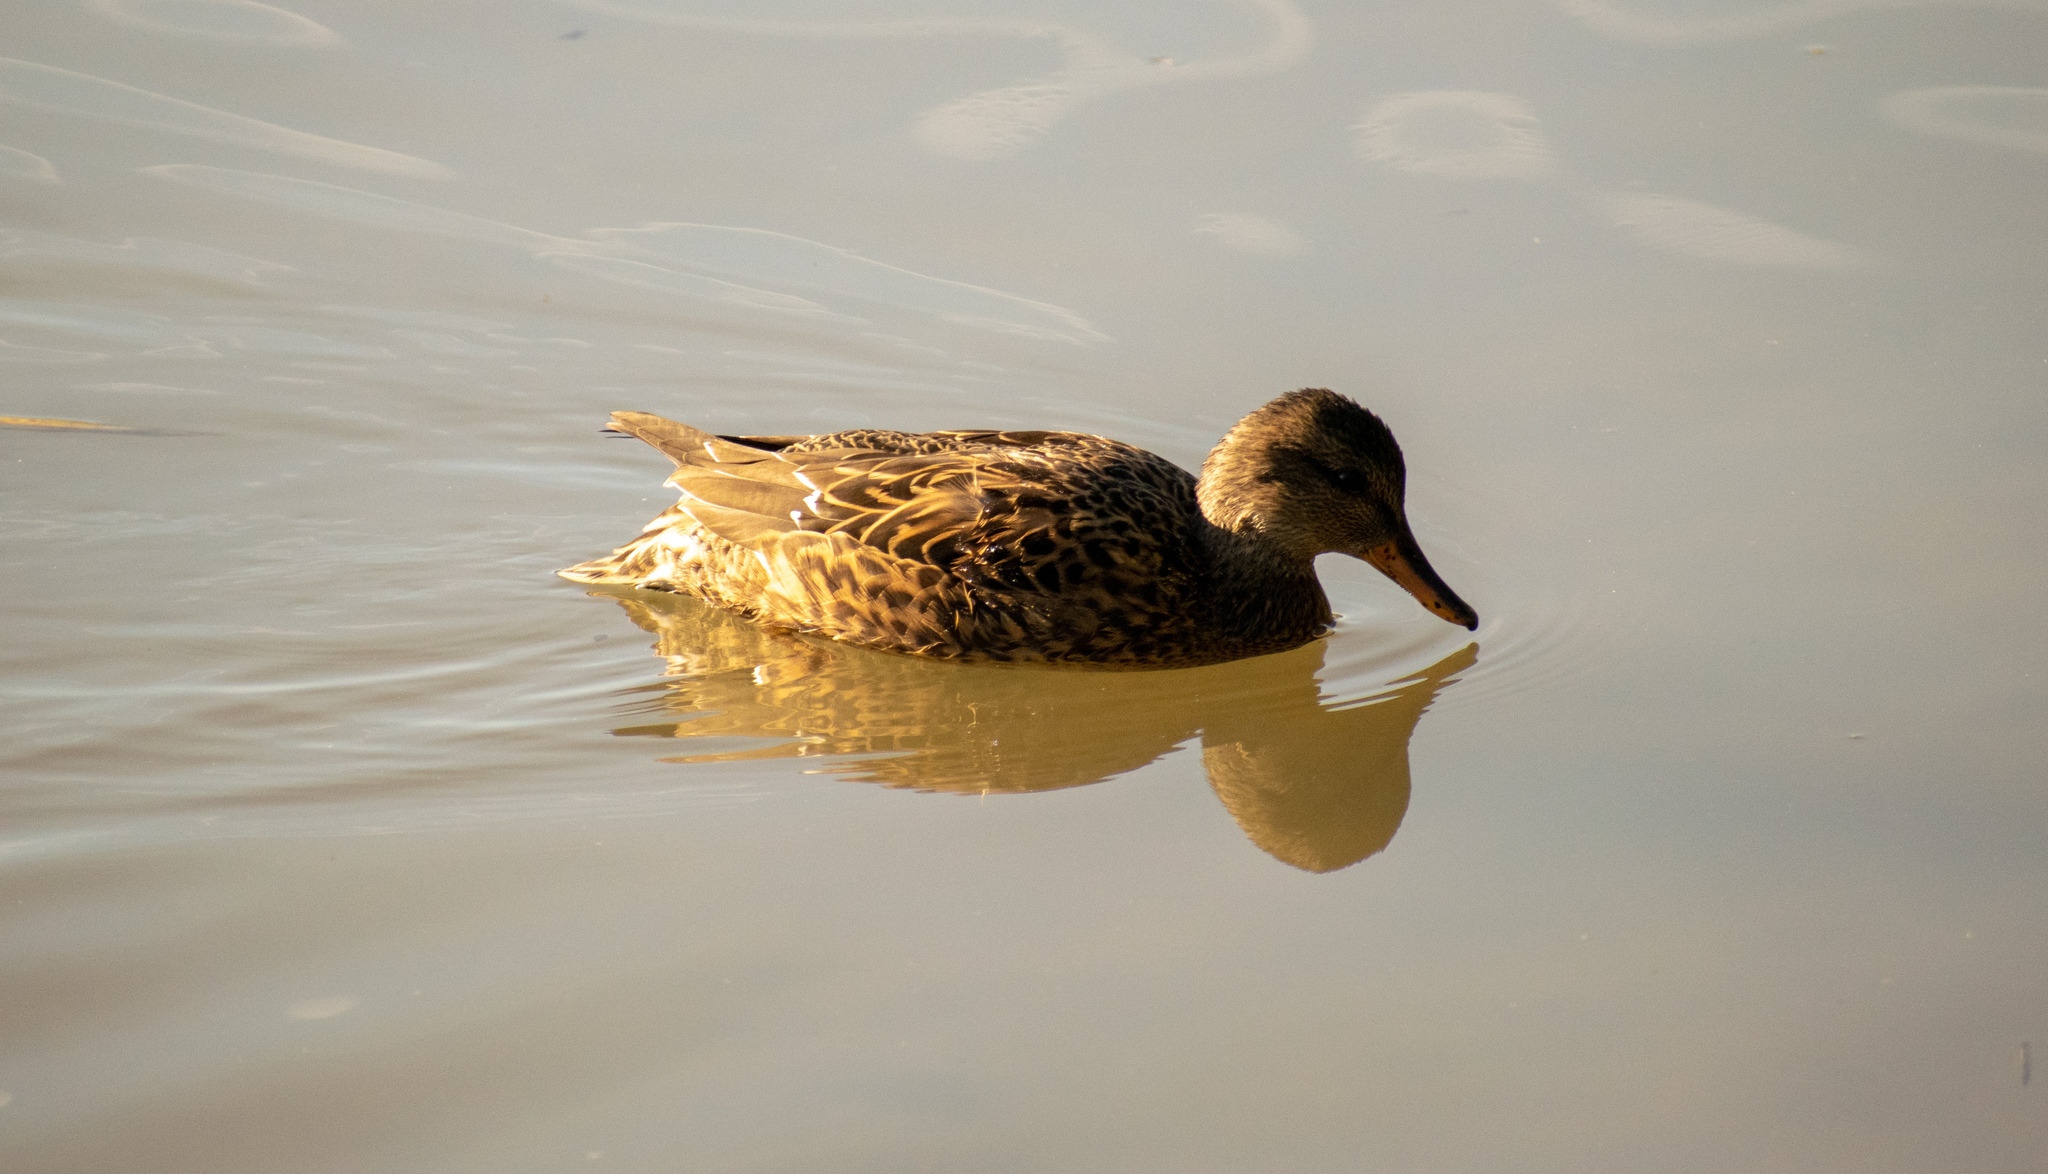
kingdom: Animalia
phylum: Chordata
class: Aves
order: Anseriformes
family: Anatidae
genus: Mareca
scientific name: Mareca strepera
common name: Gadwall
